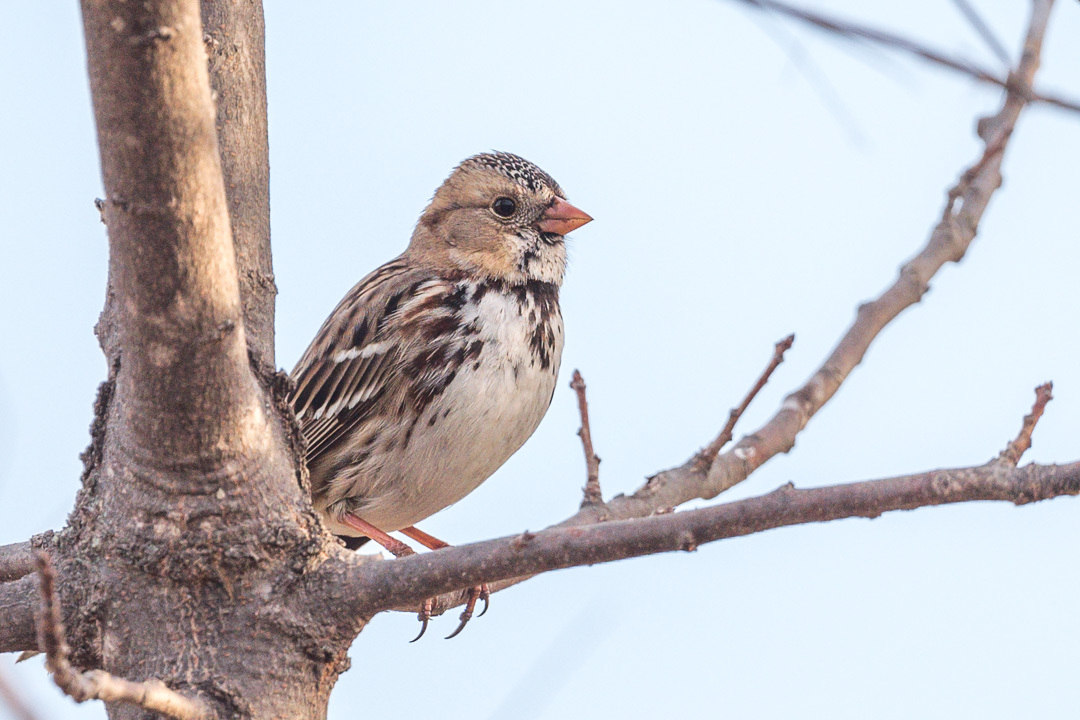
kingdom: Animalia
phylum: Chordata
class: Aves
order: Passeriformes
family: Passerellidae
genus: Zonotrichia
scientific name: Zonotrichia querula
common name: Harris's sparrow
